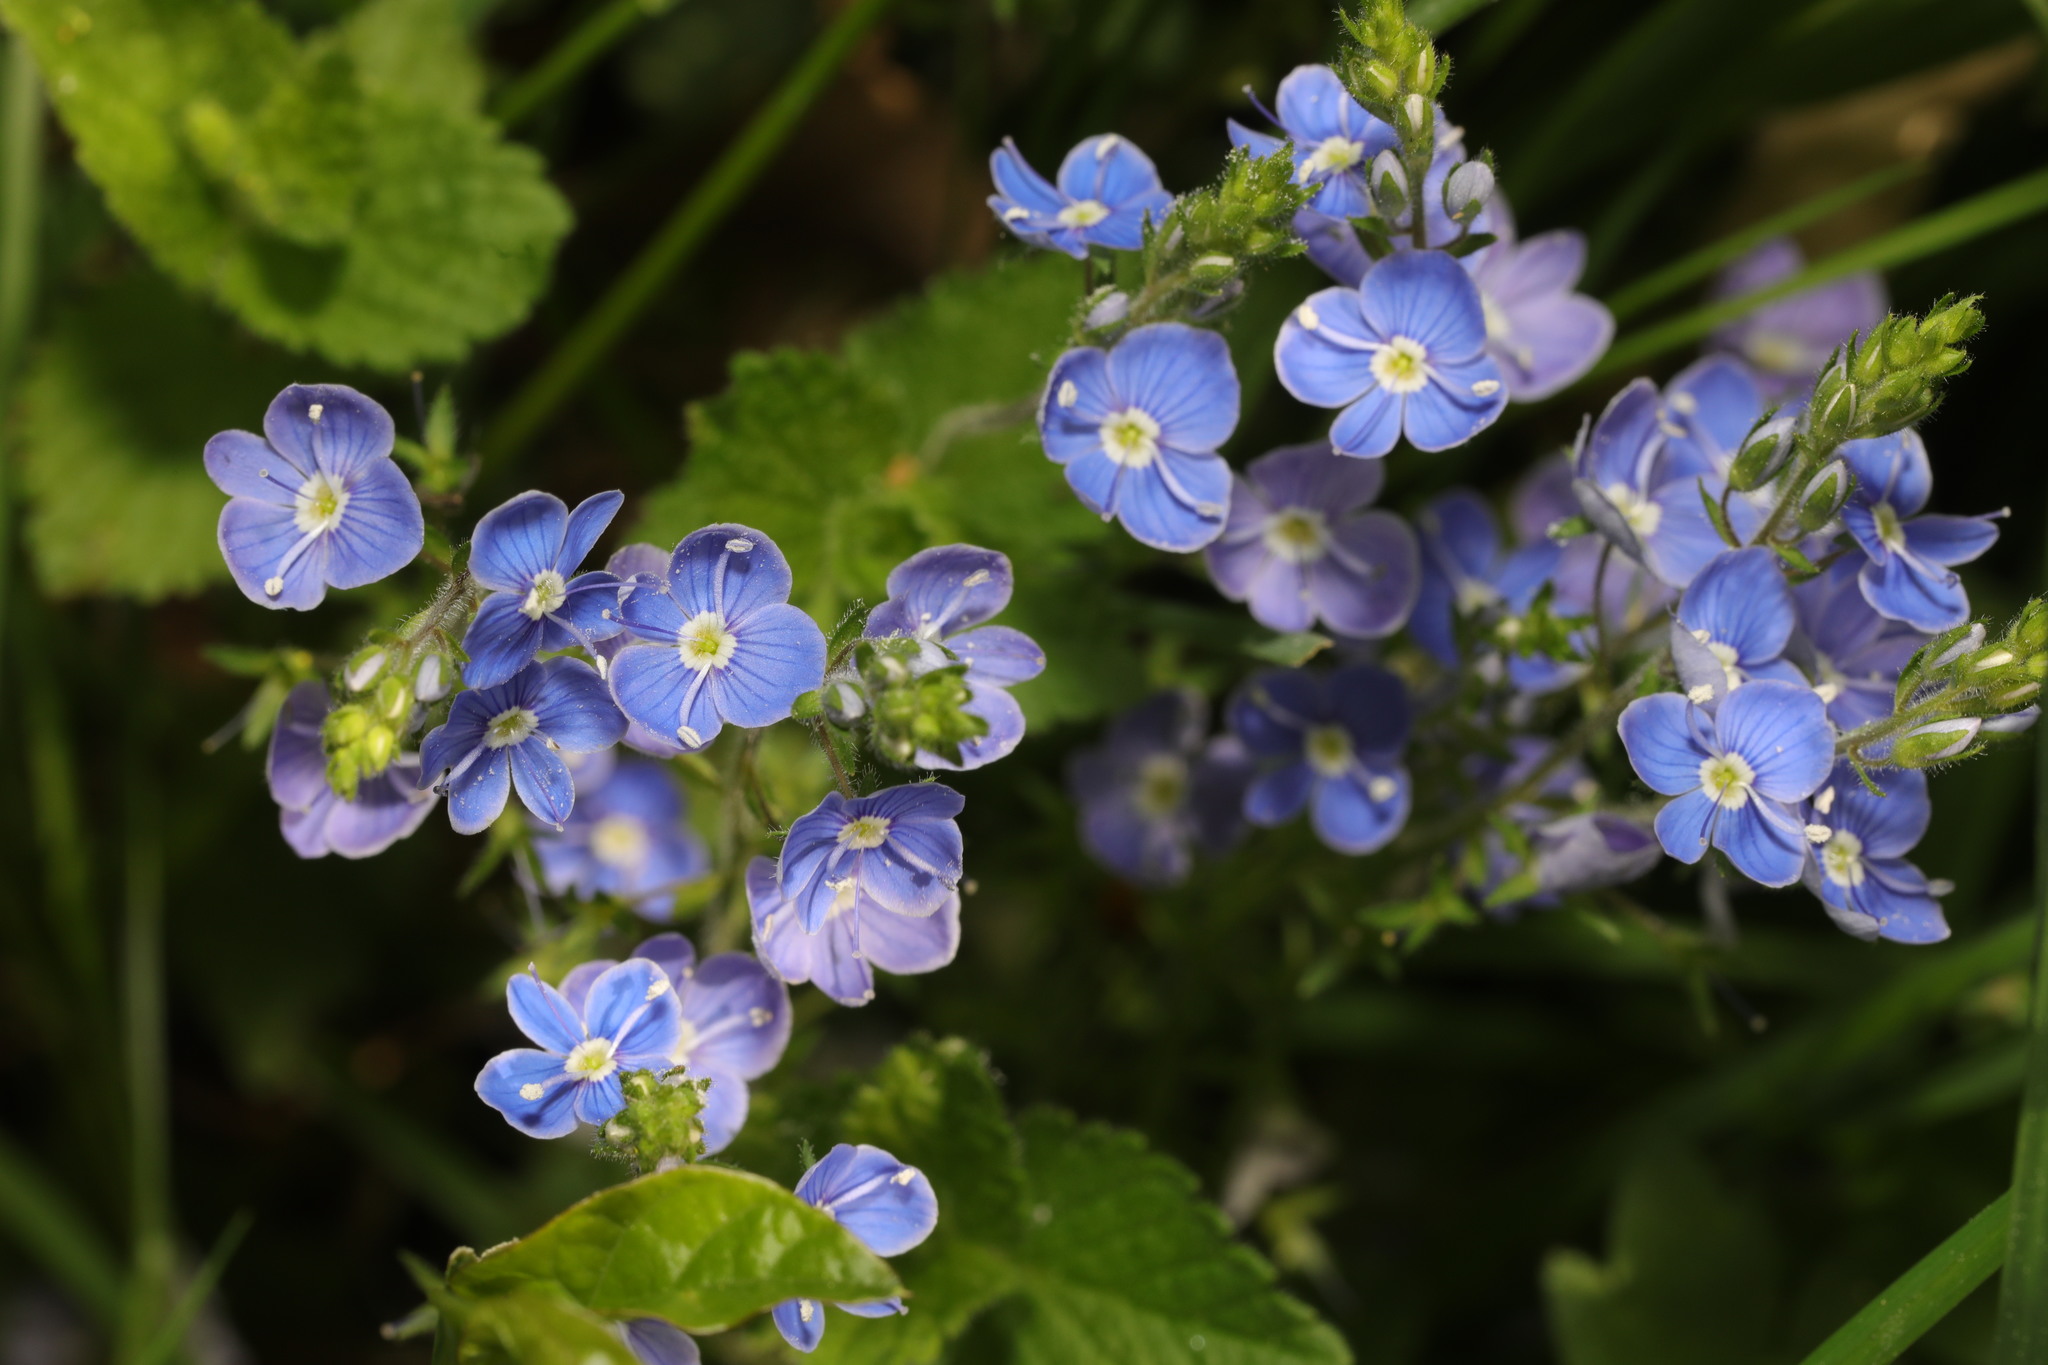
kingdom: Plantae
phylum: Tracheophyta
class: Magnoliopsida
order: Lamiales
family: Plantaginaceae
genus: Veronica
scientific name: Veronica chamaedrys
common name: Germander speedwell
